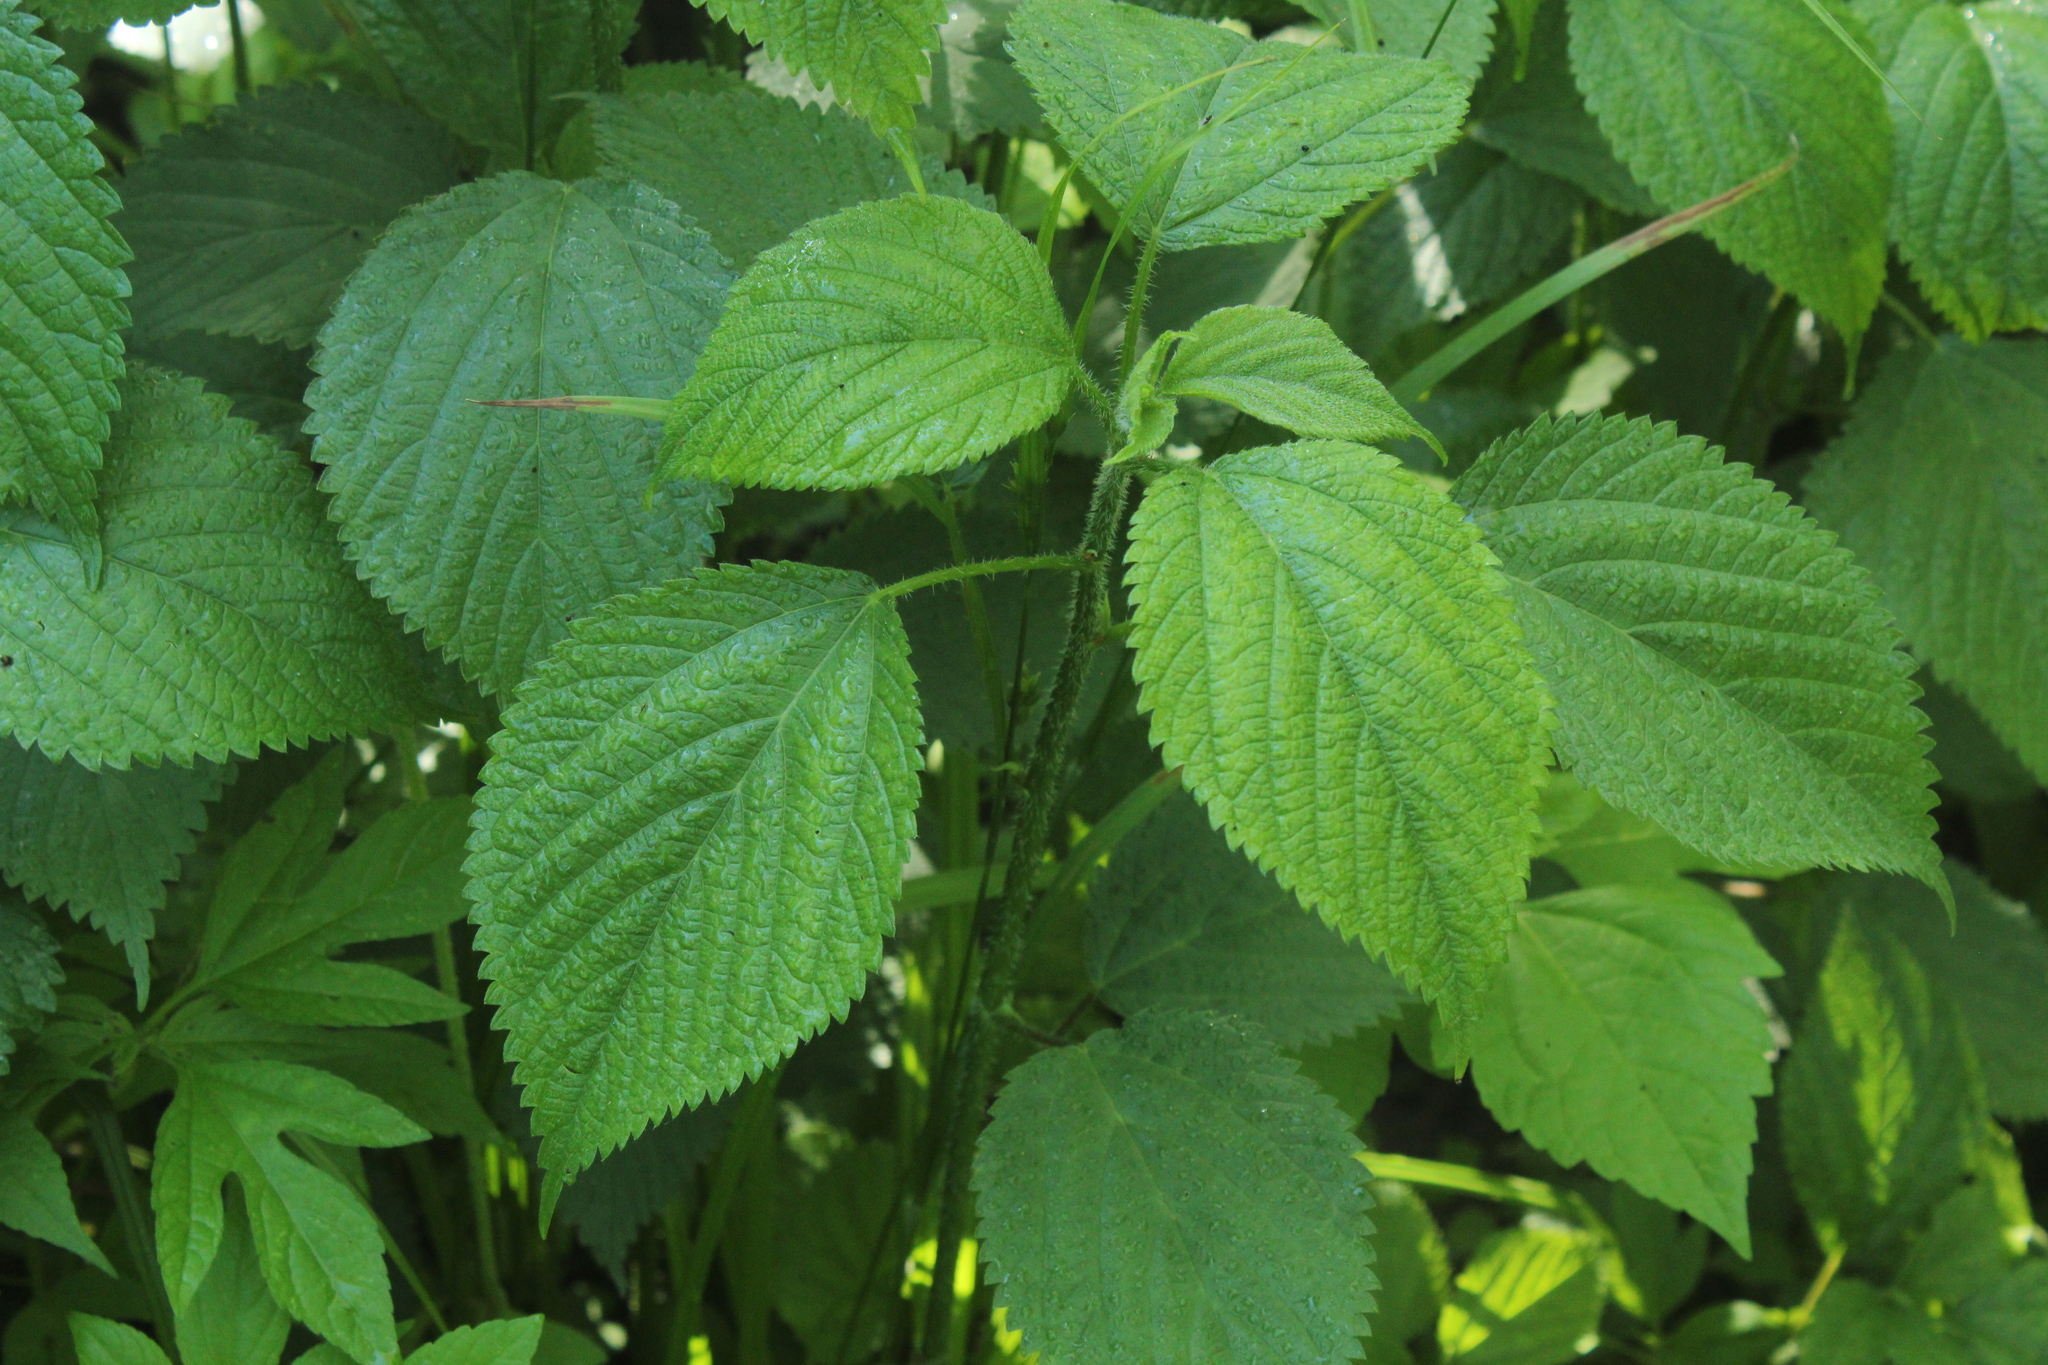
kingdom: Plantae
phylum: Tracheophyta
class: Magnoliopsida
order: Rosales
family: Urticaceae
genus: Laportea
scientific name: Laportea canadensis
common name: Canada nettle
